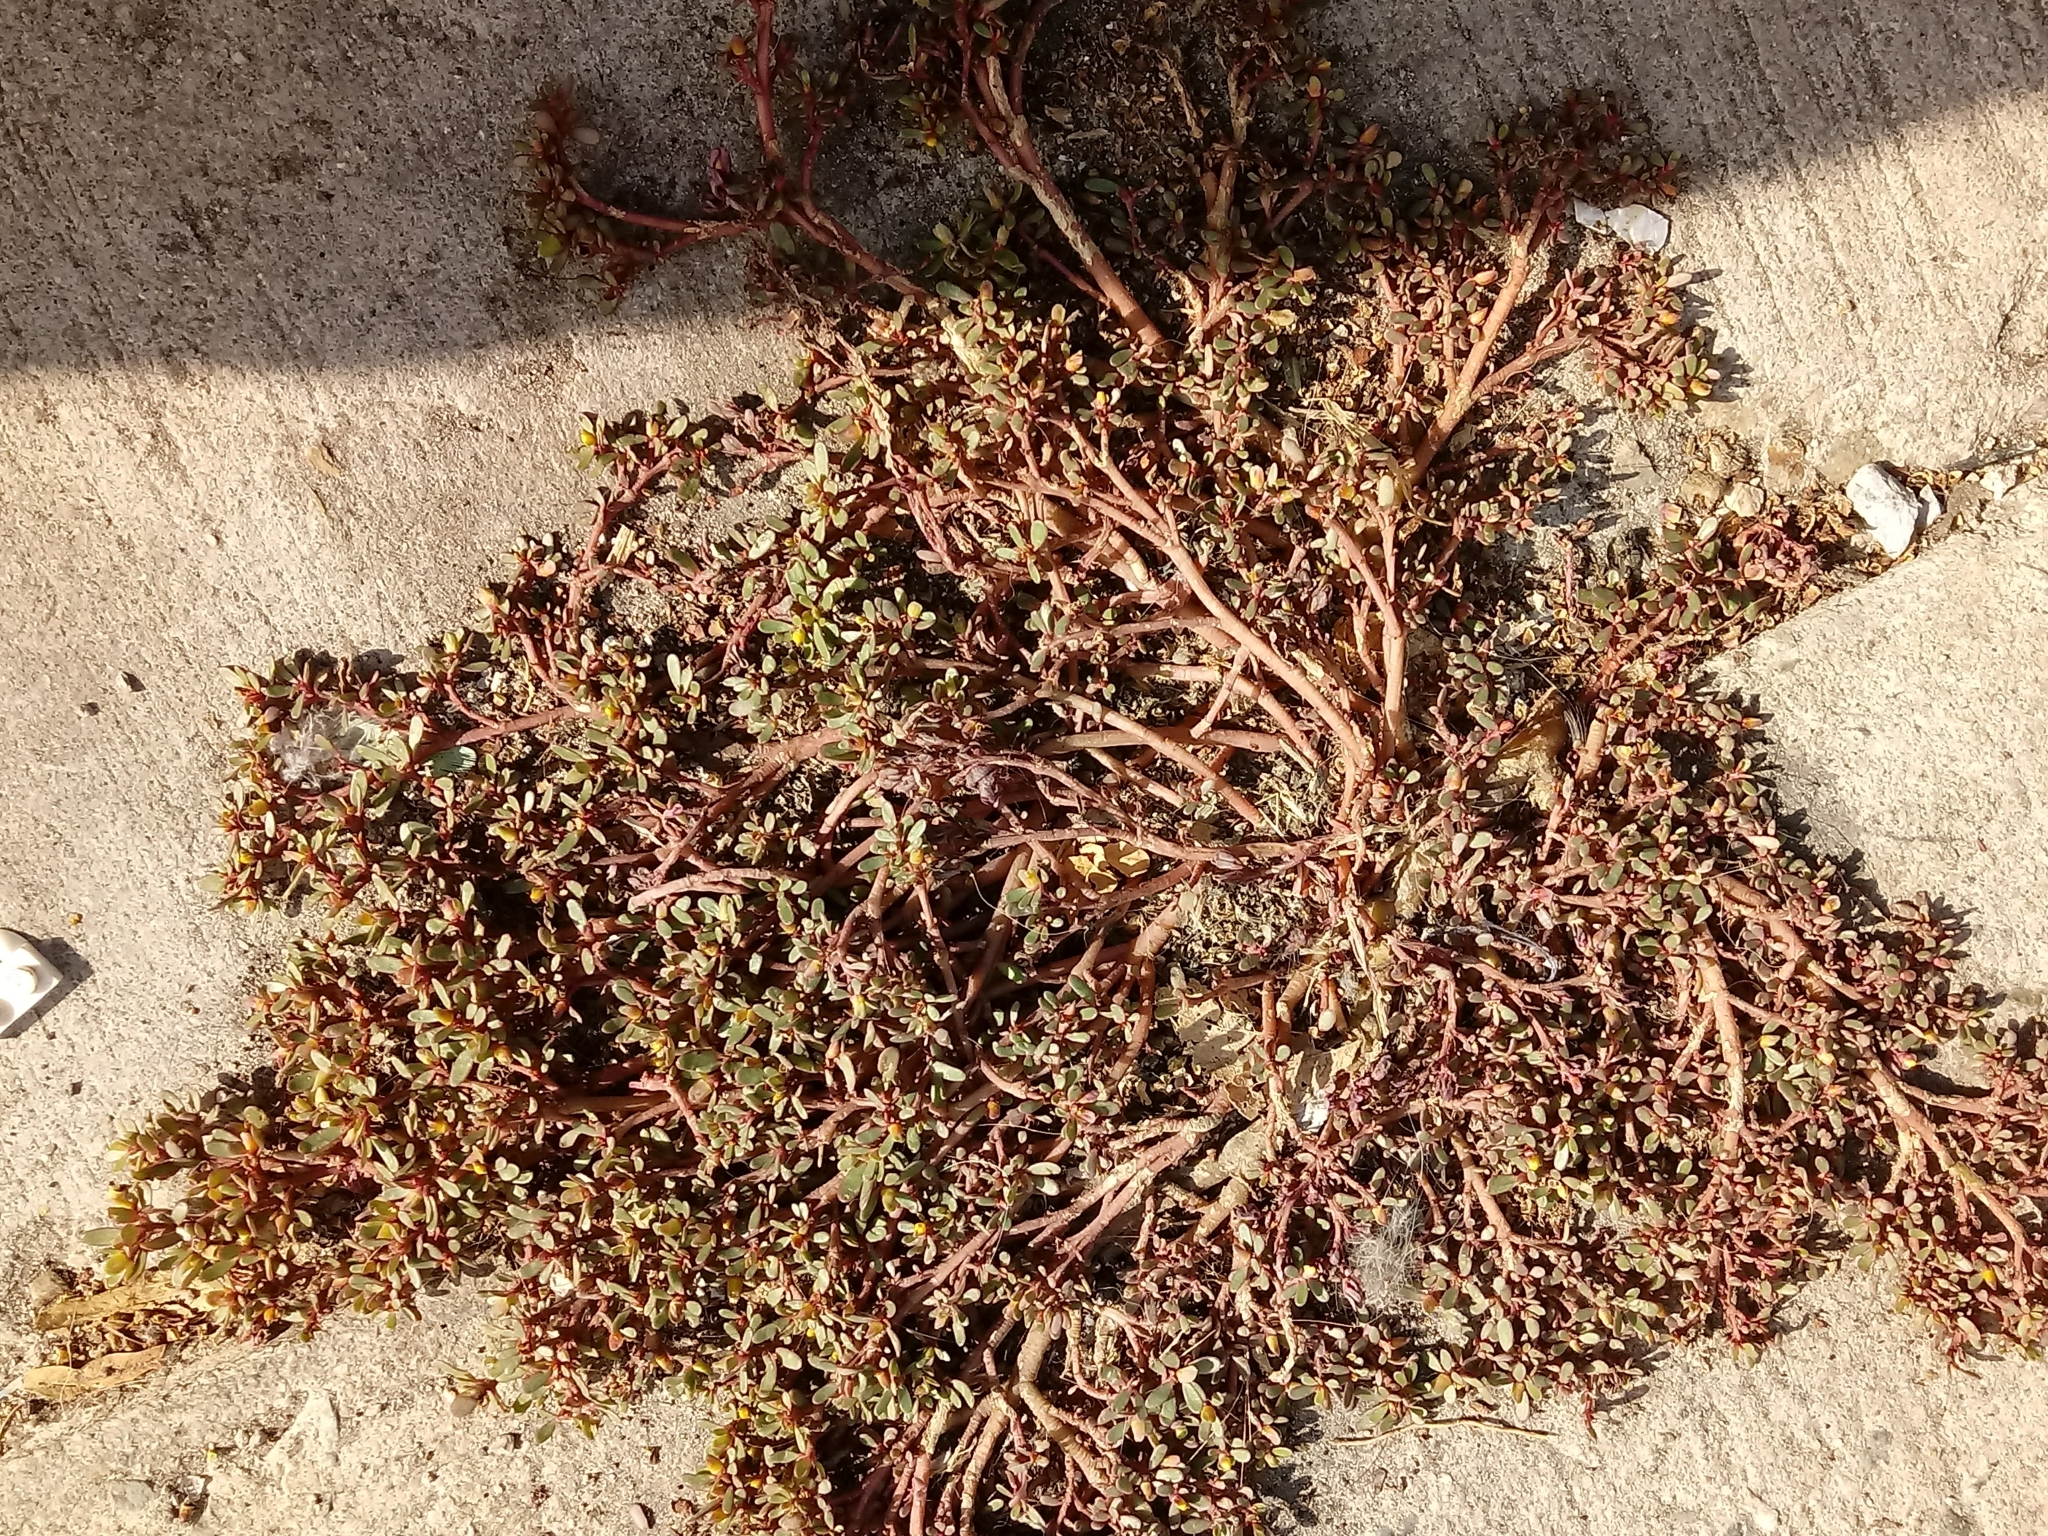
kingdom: Plantae
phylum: Tracheophyta
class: Magnoliopsida
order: Caryophyllales
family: Portulacaceae
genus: Portulaca
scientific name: Portulaca oleracea
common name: Common purslane
